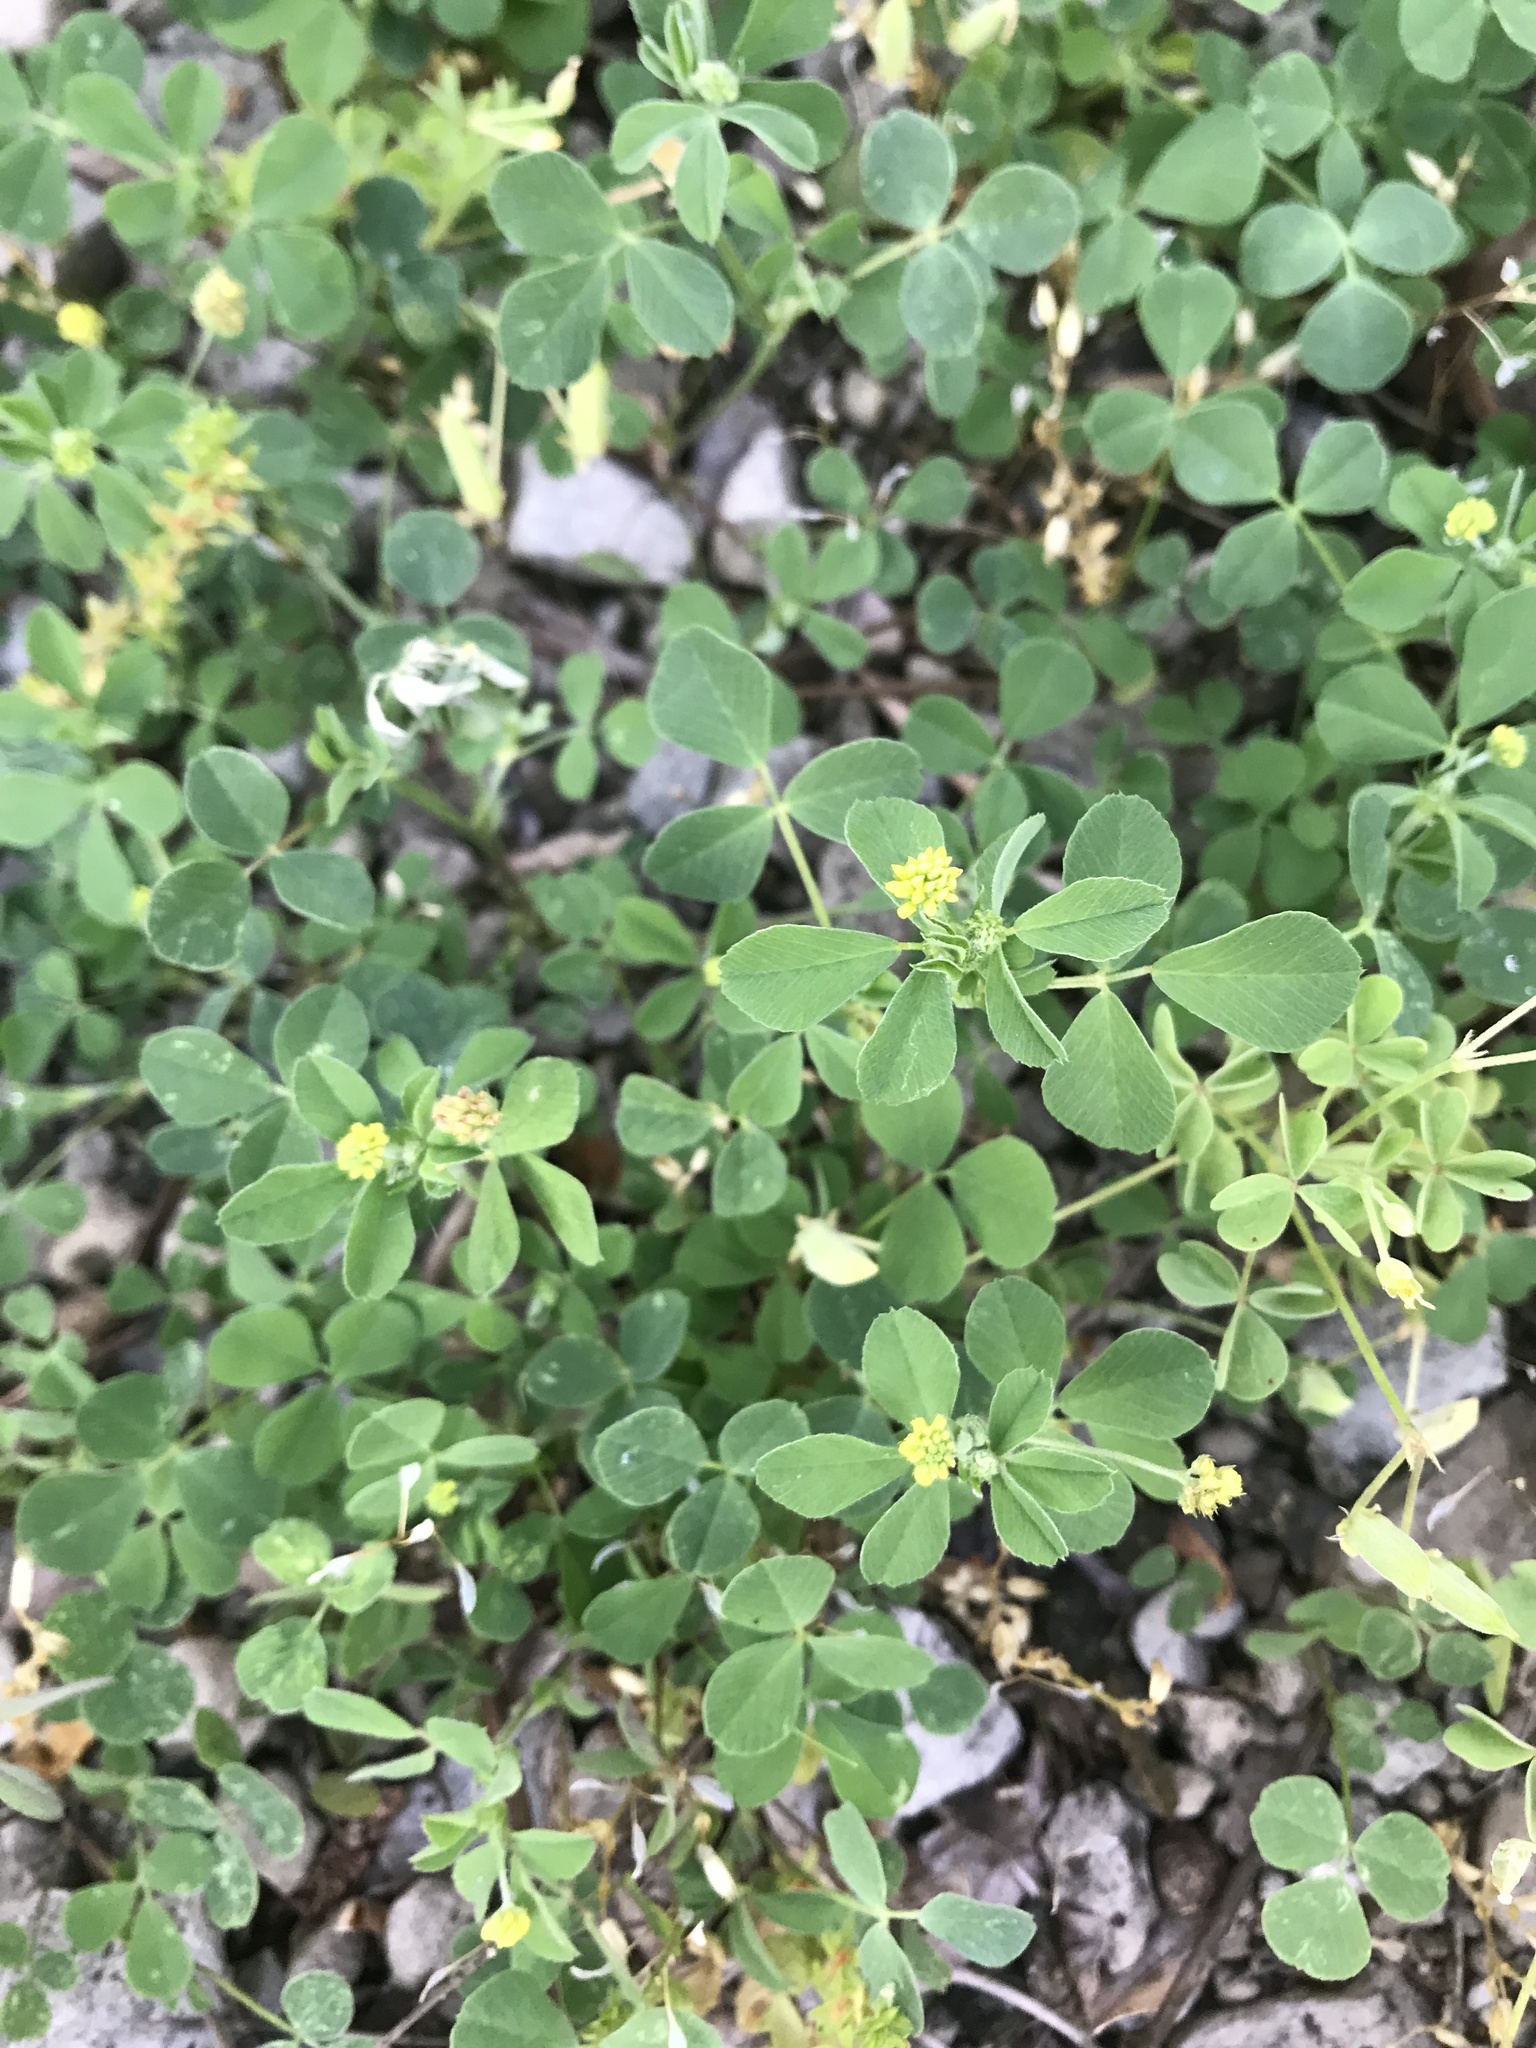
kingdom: Plantae
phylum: Tracheophyta
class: Magnoliopsida
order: Fabales
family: Fabaceae
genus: Medicago
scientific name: Medicago lupulina
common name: Black medick
